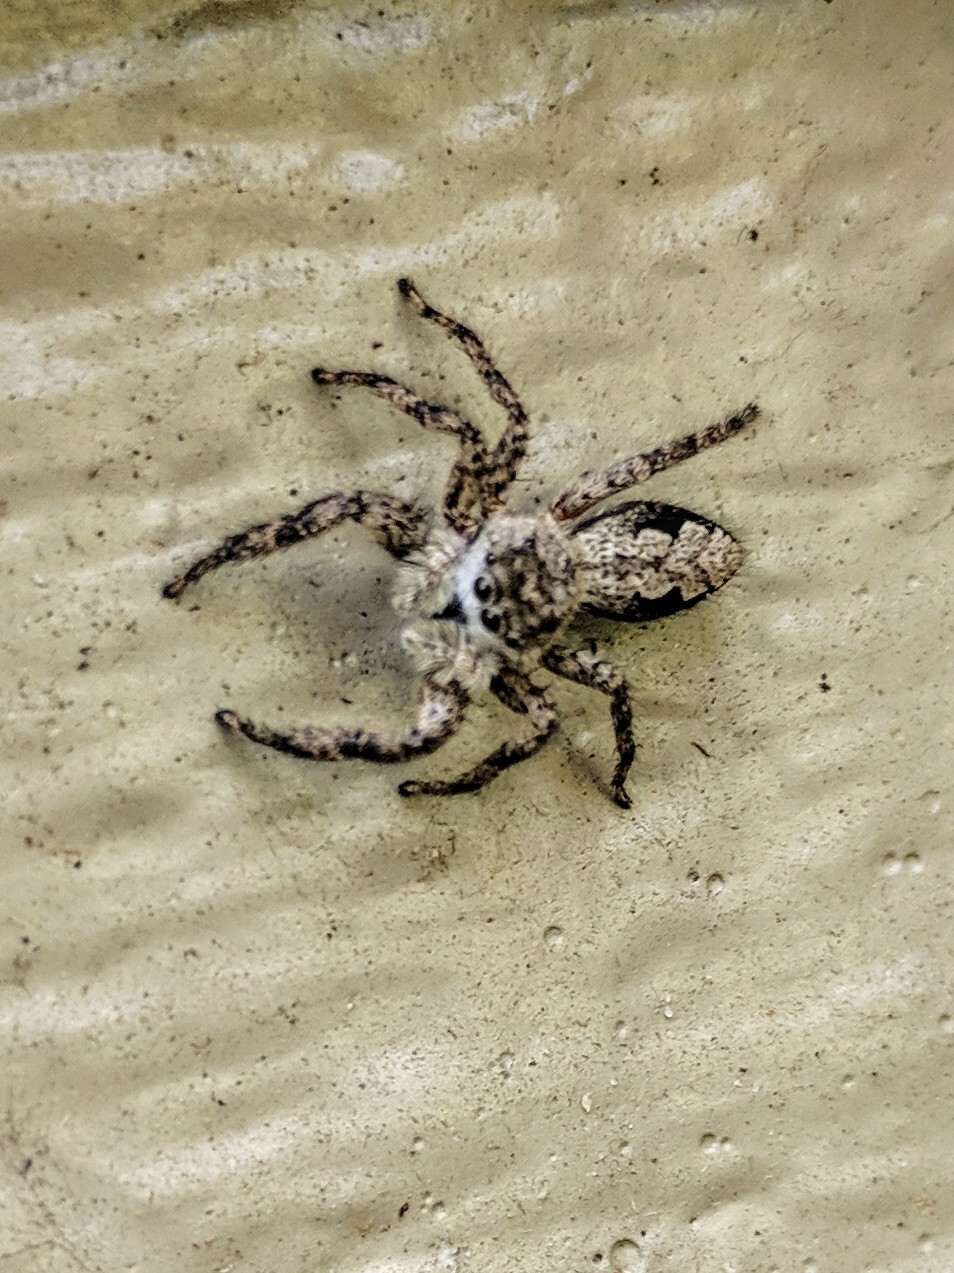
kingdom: Animalia
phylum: Arthropoda
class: Arachnida
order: Araneae
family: Salticidae
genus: Platycryptus
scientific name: Platycryptus undatus
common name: Tan jumping spider
